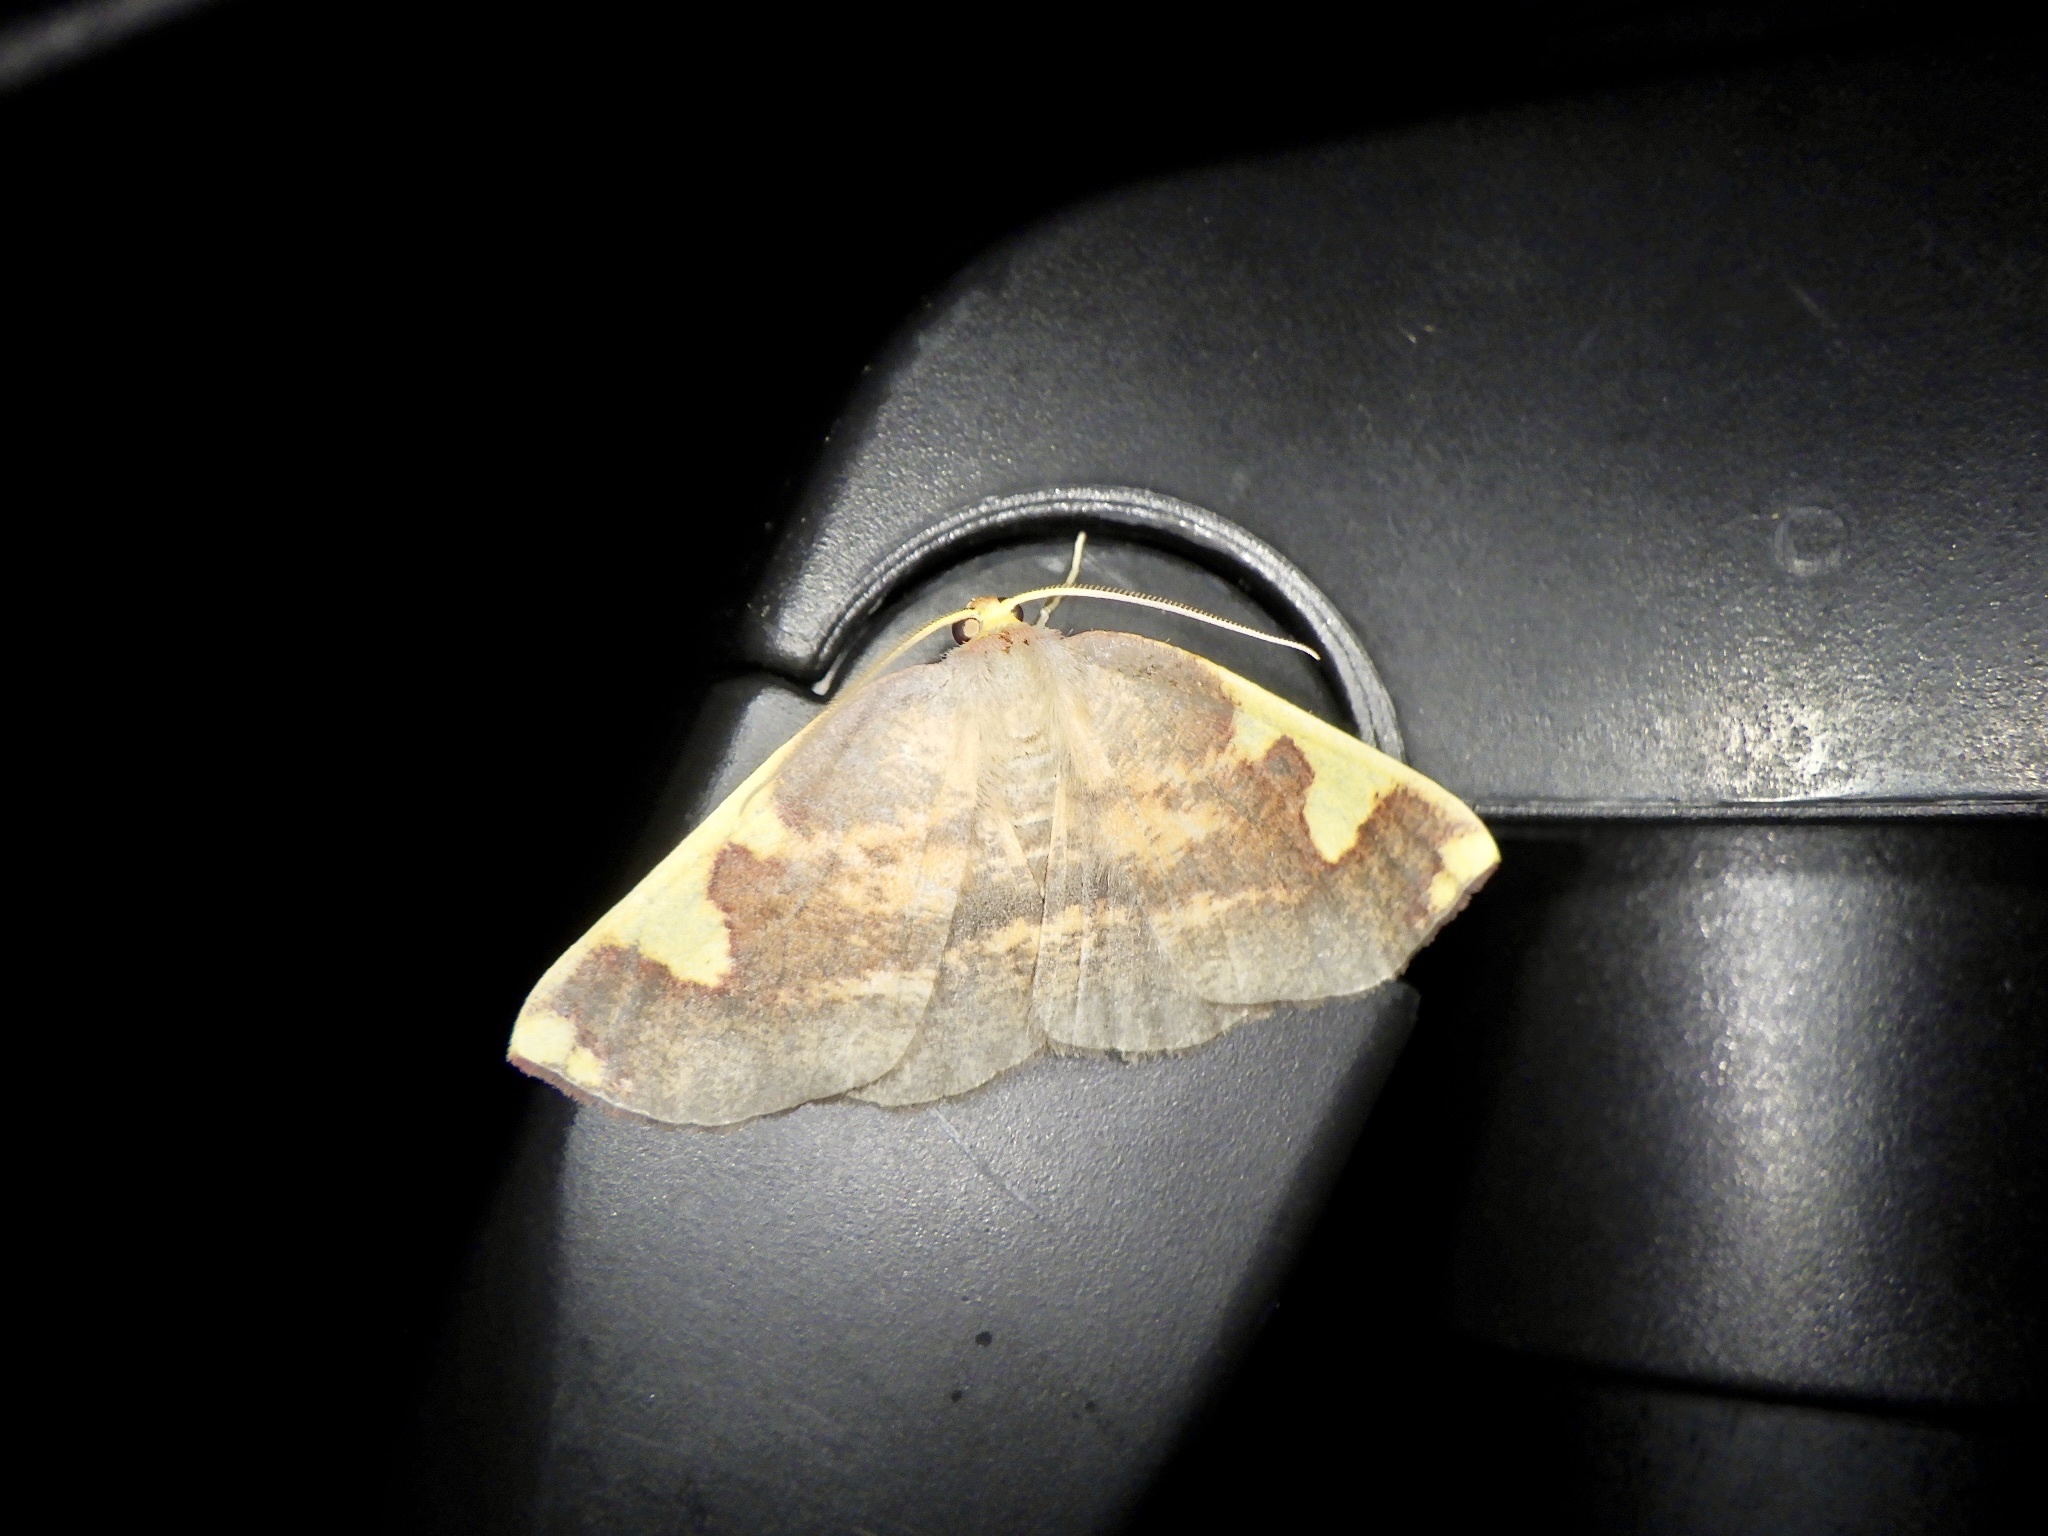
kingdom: Animalia
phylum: Arthropoda
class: Insecta
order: Lepidoptera
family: Geometridae
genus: Nothomiza
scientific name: Nothomiza formosa
